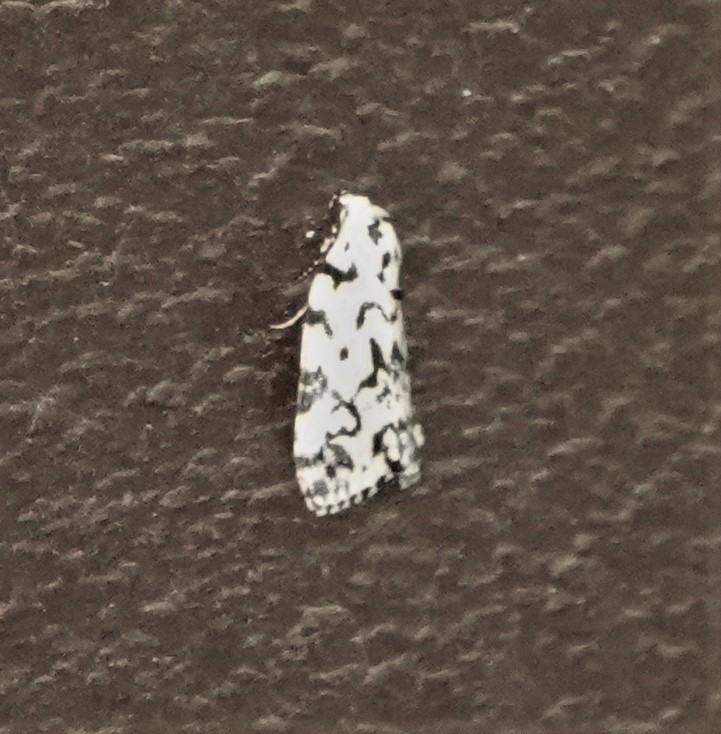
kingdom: Animalia
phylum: Arthropoda
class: Insecta
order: Lepidoptera
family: Noctuidae
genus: Polygrammate
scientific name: Polygrammate hebraeicum
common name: Hebrew moth
